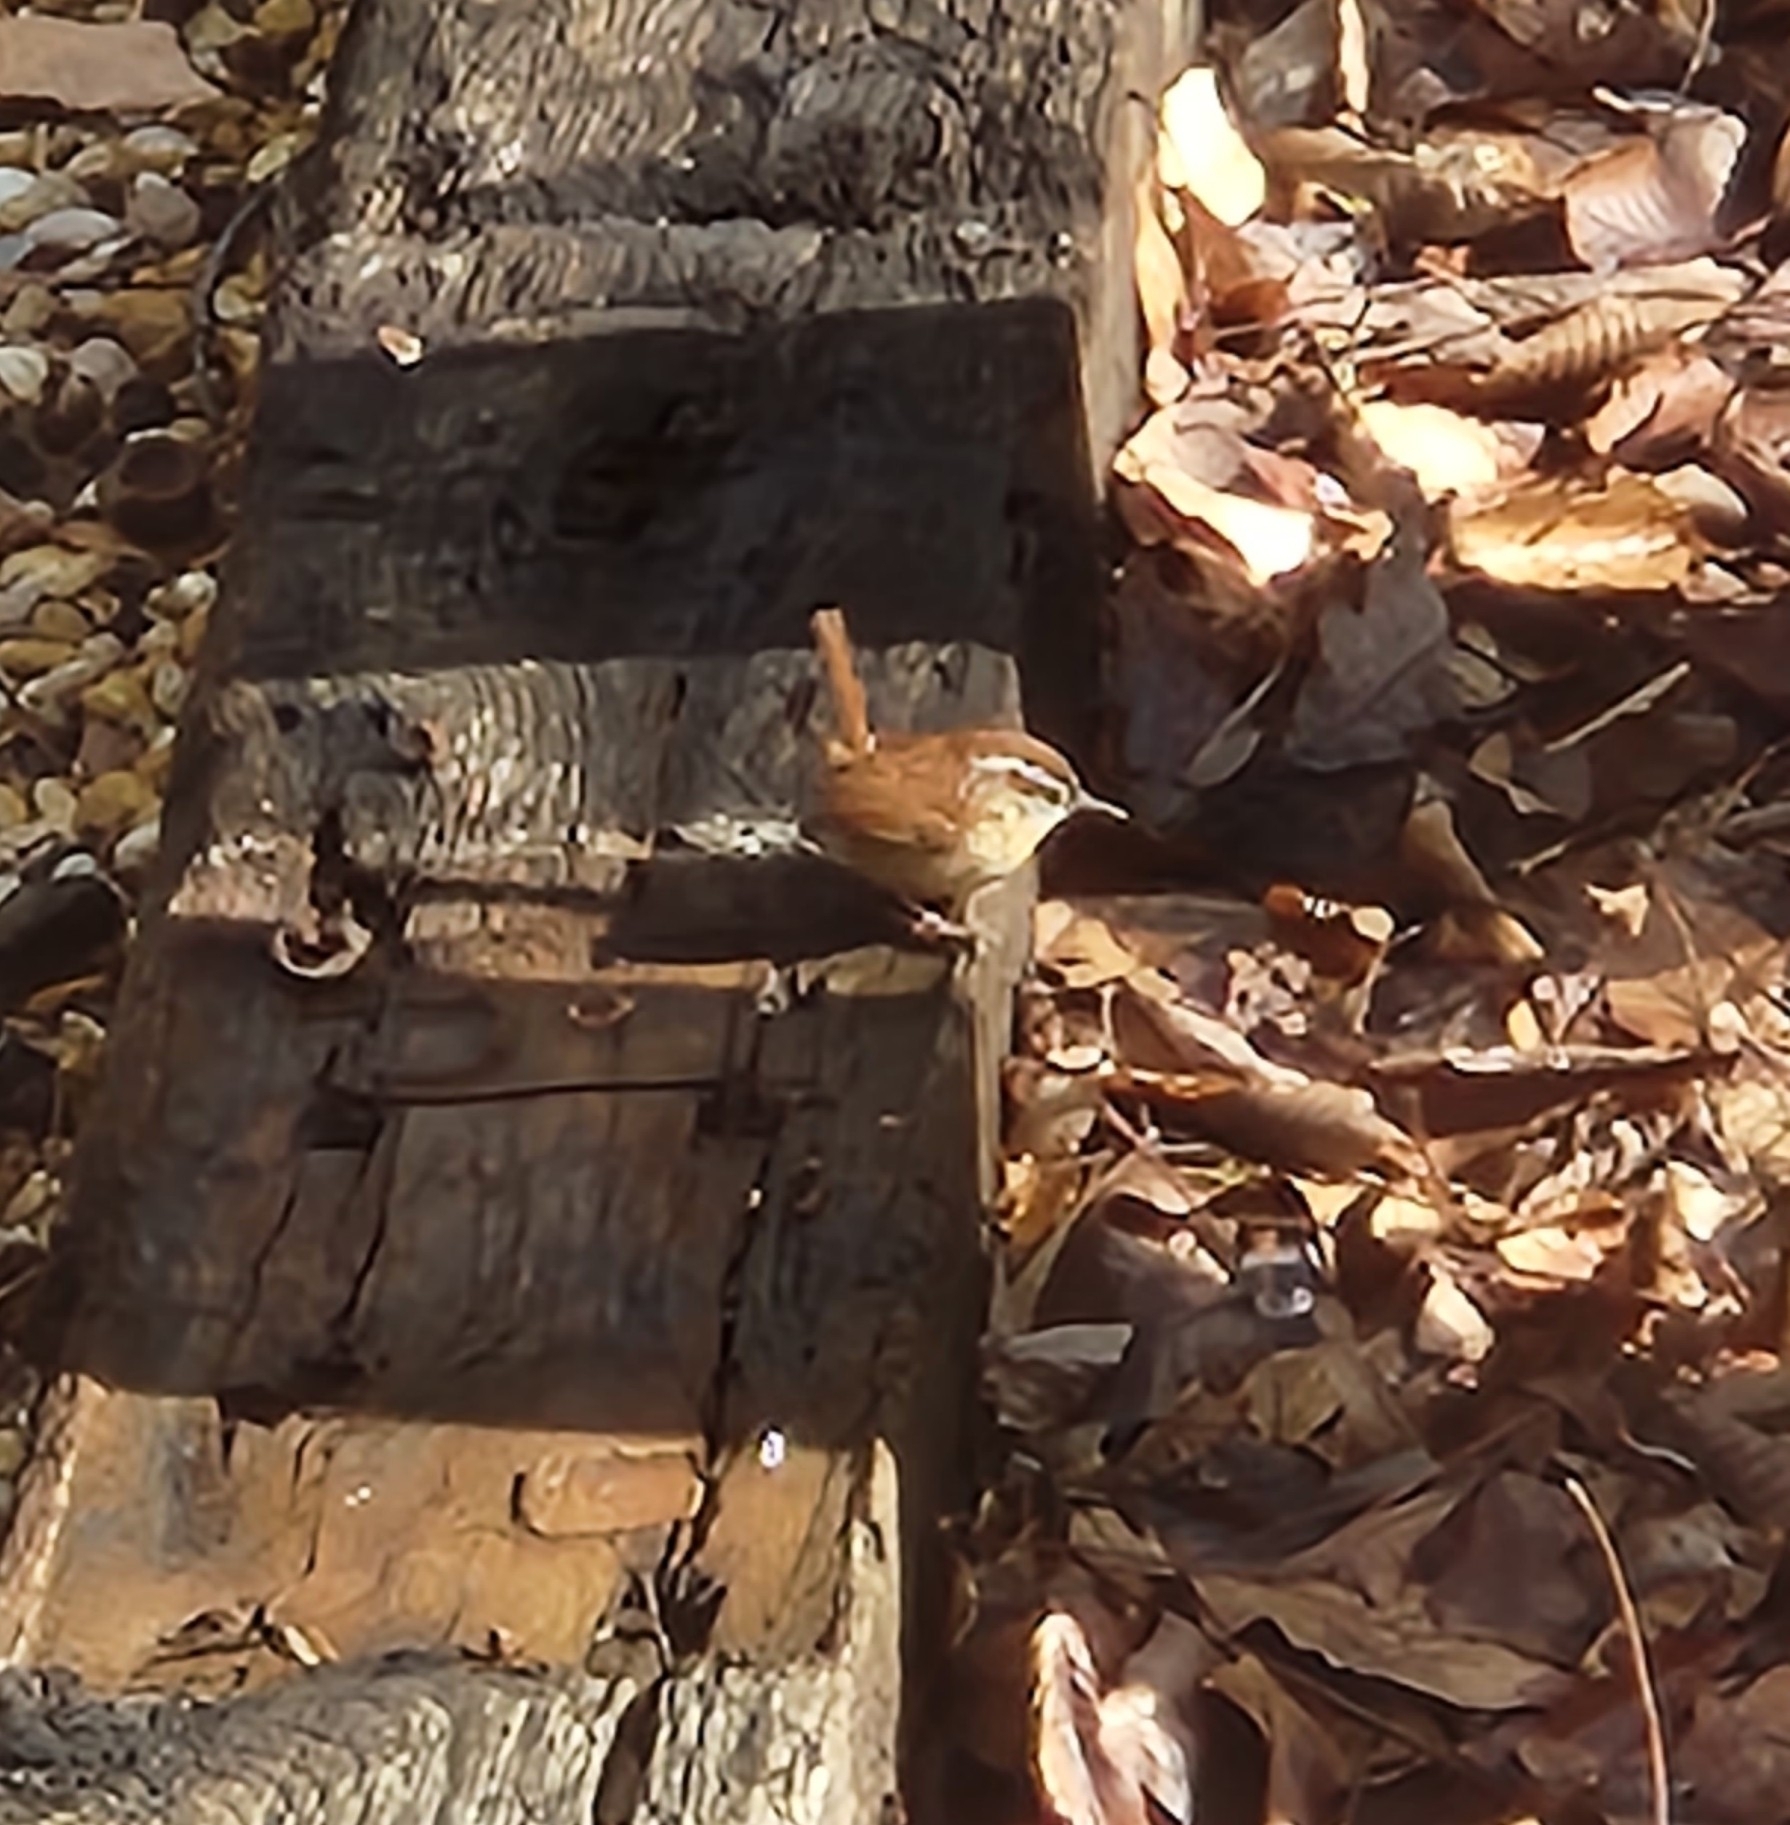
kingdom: Animalia
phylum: Chordata
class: Aves
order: Passeriformes
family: Troglodytidae
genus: Thryothorus
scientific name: Thryothorus ludovicianus
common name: Carolina wren
